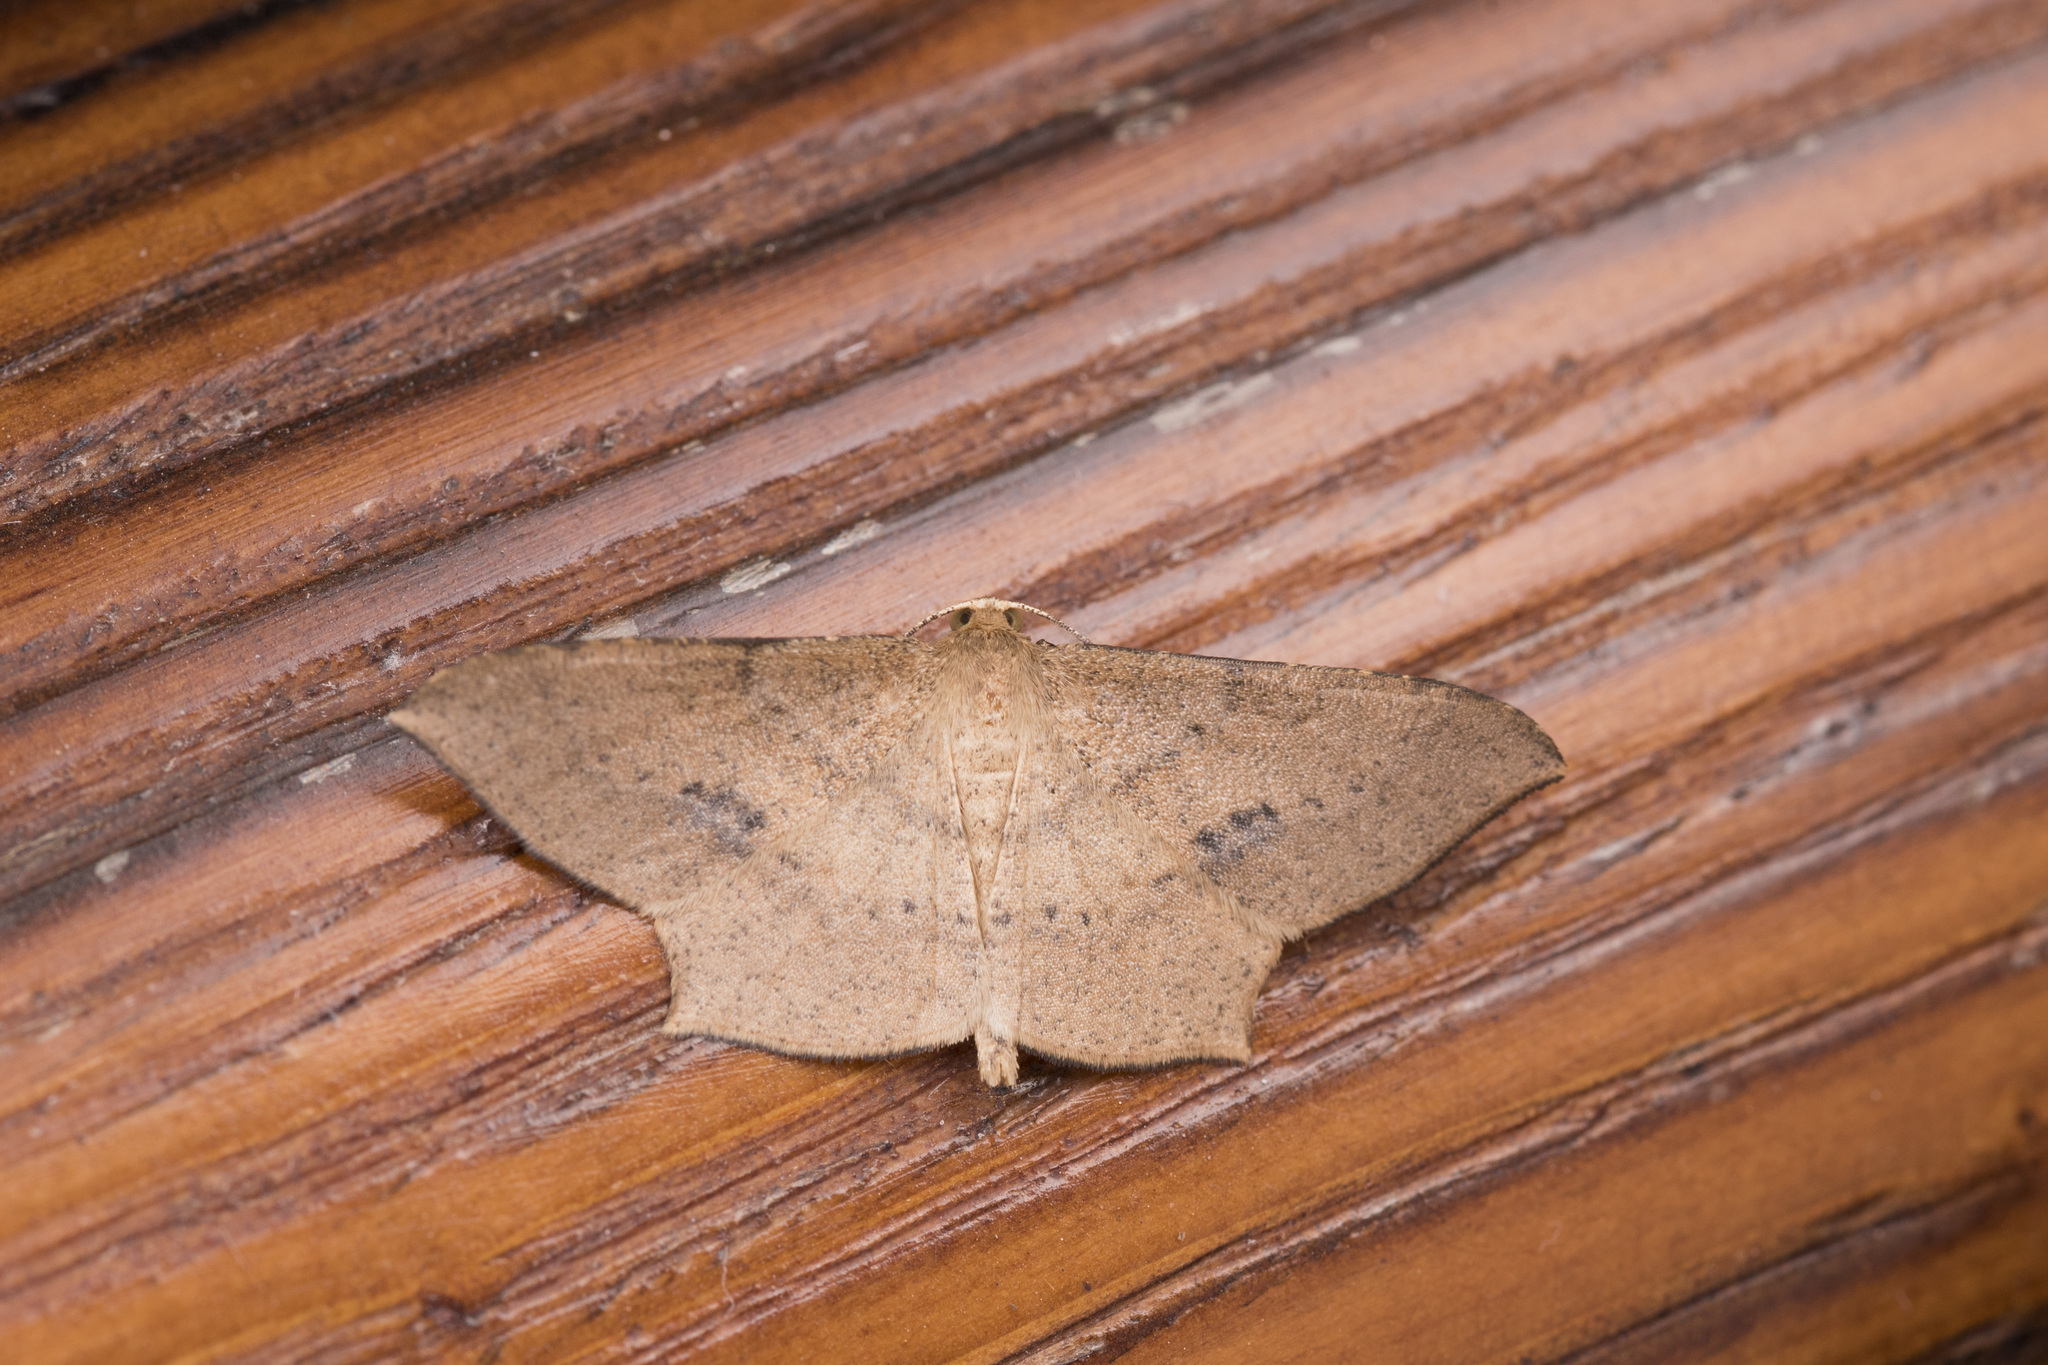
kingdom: Animalia
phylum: Arthropoda
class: Insecta
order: Lepidoptera
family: Geometridae
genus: Krananda
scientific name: Krananda falcata
